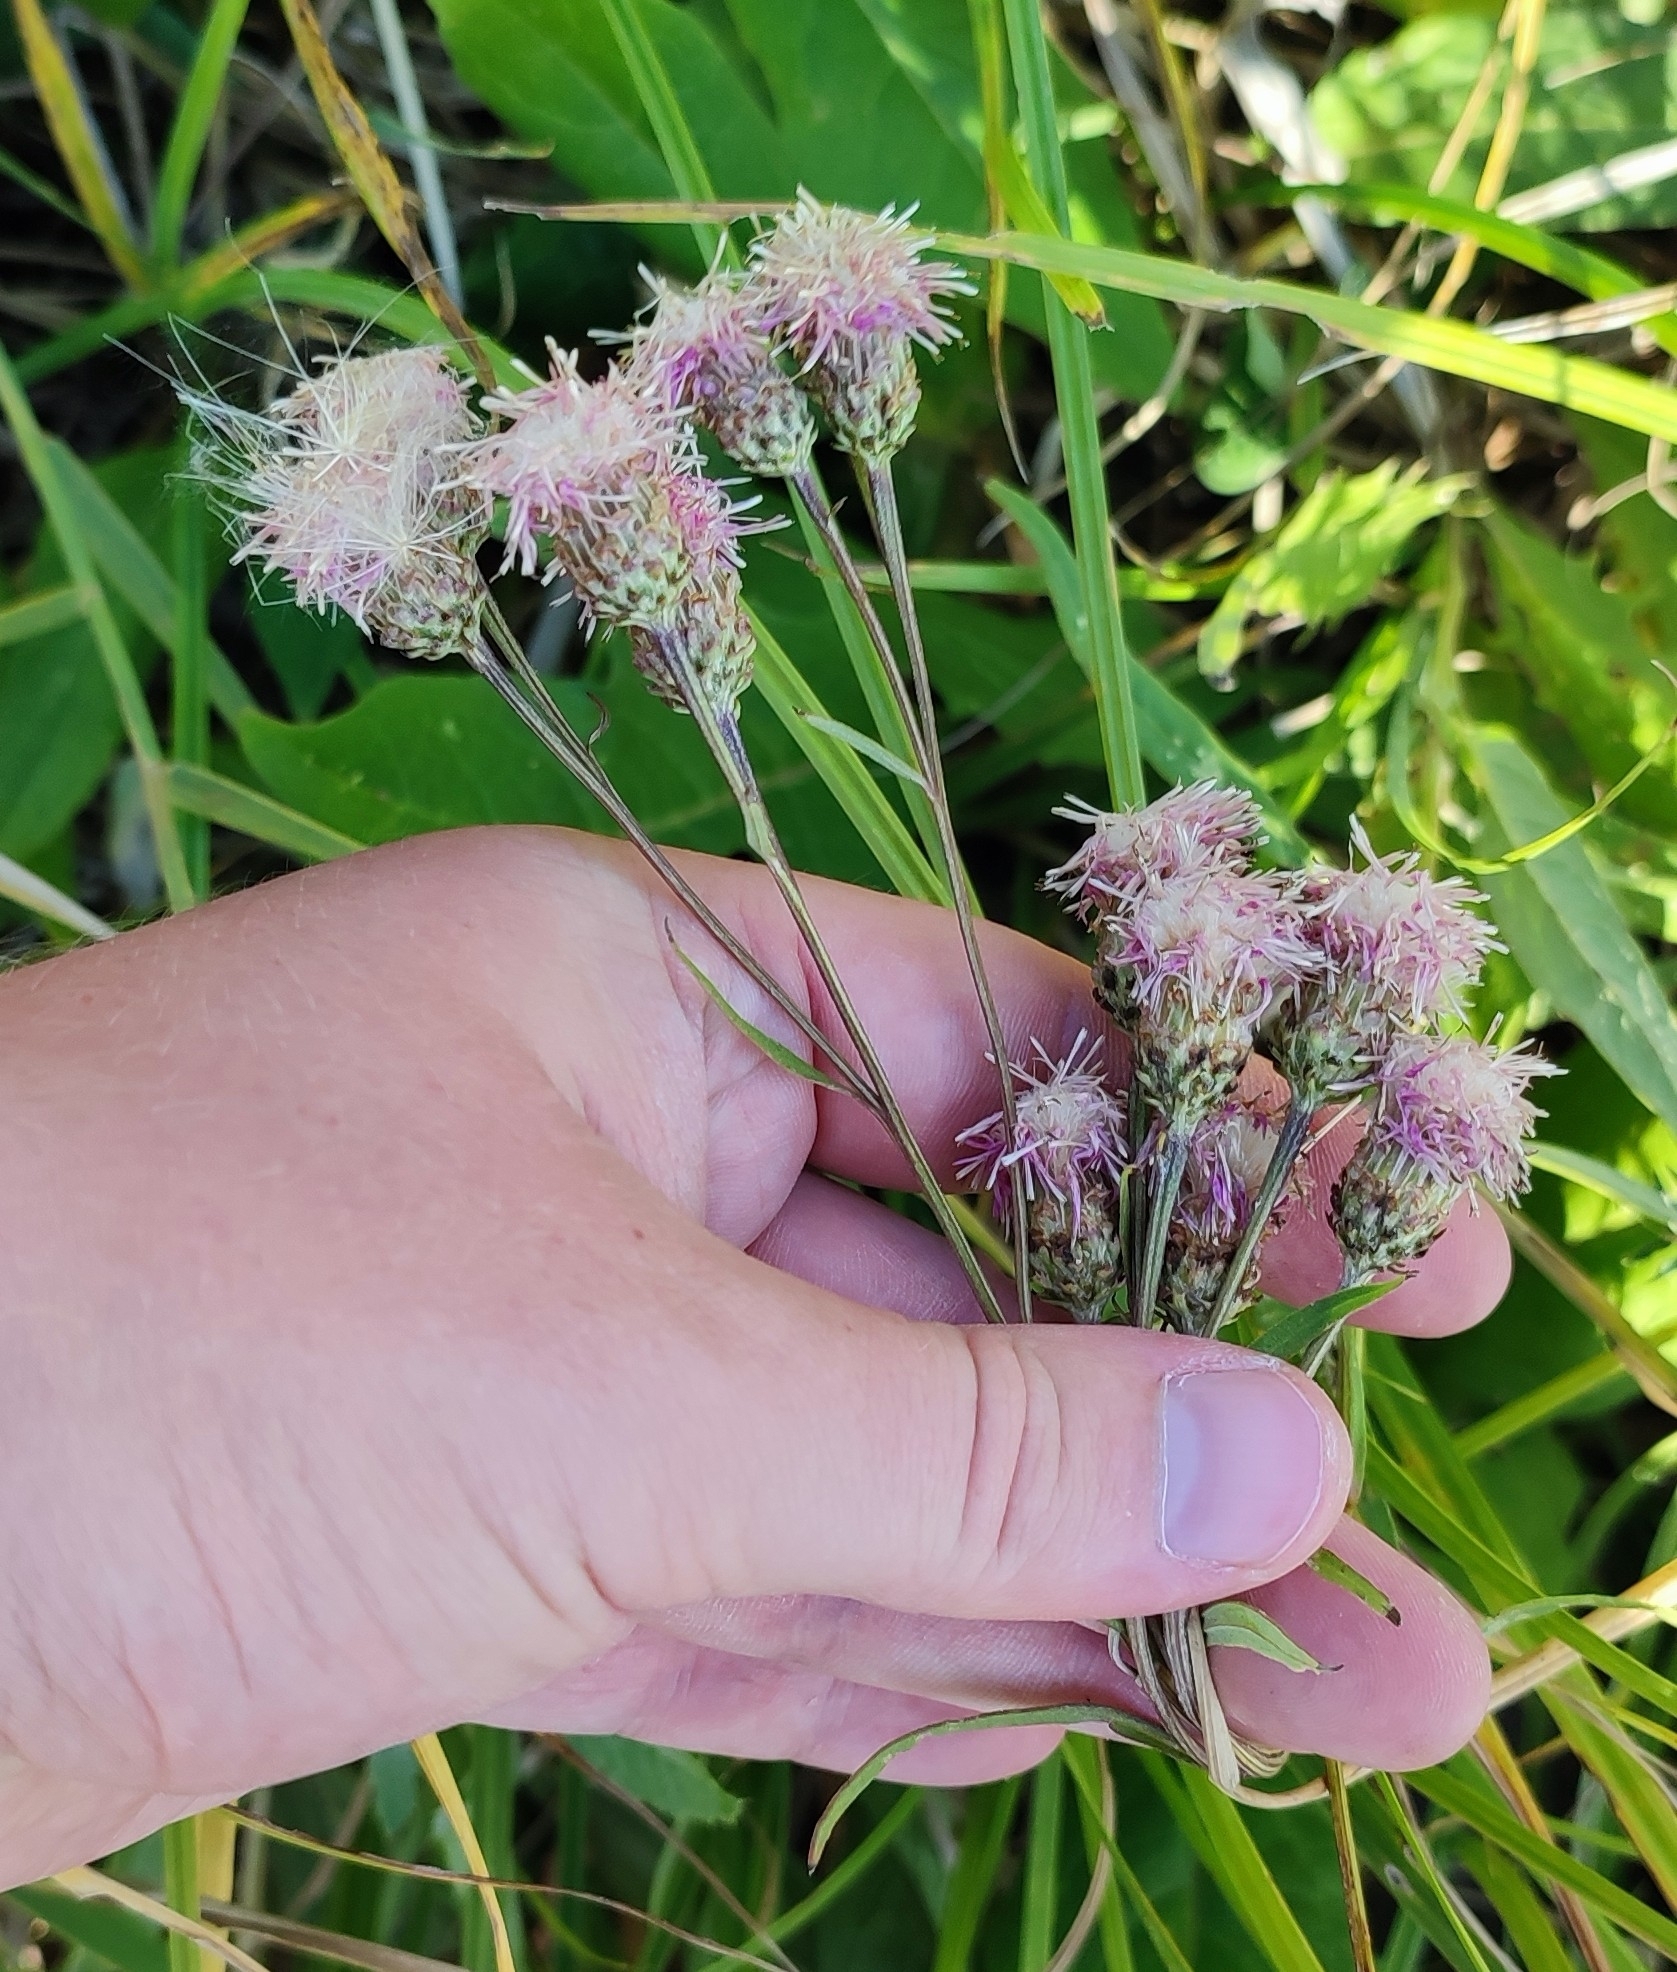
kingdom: Plantae
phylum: Tracheophyta
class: Magnoliopsida
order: Asterales
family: Asteraceae
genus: Saussurea
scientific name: Saussurea amara
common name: Alberta sawwort
